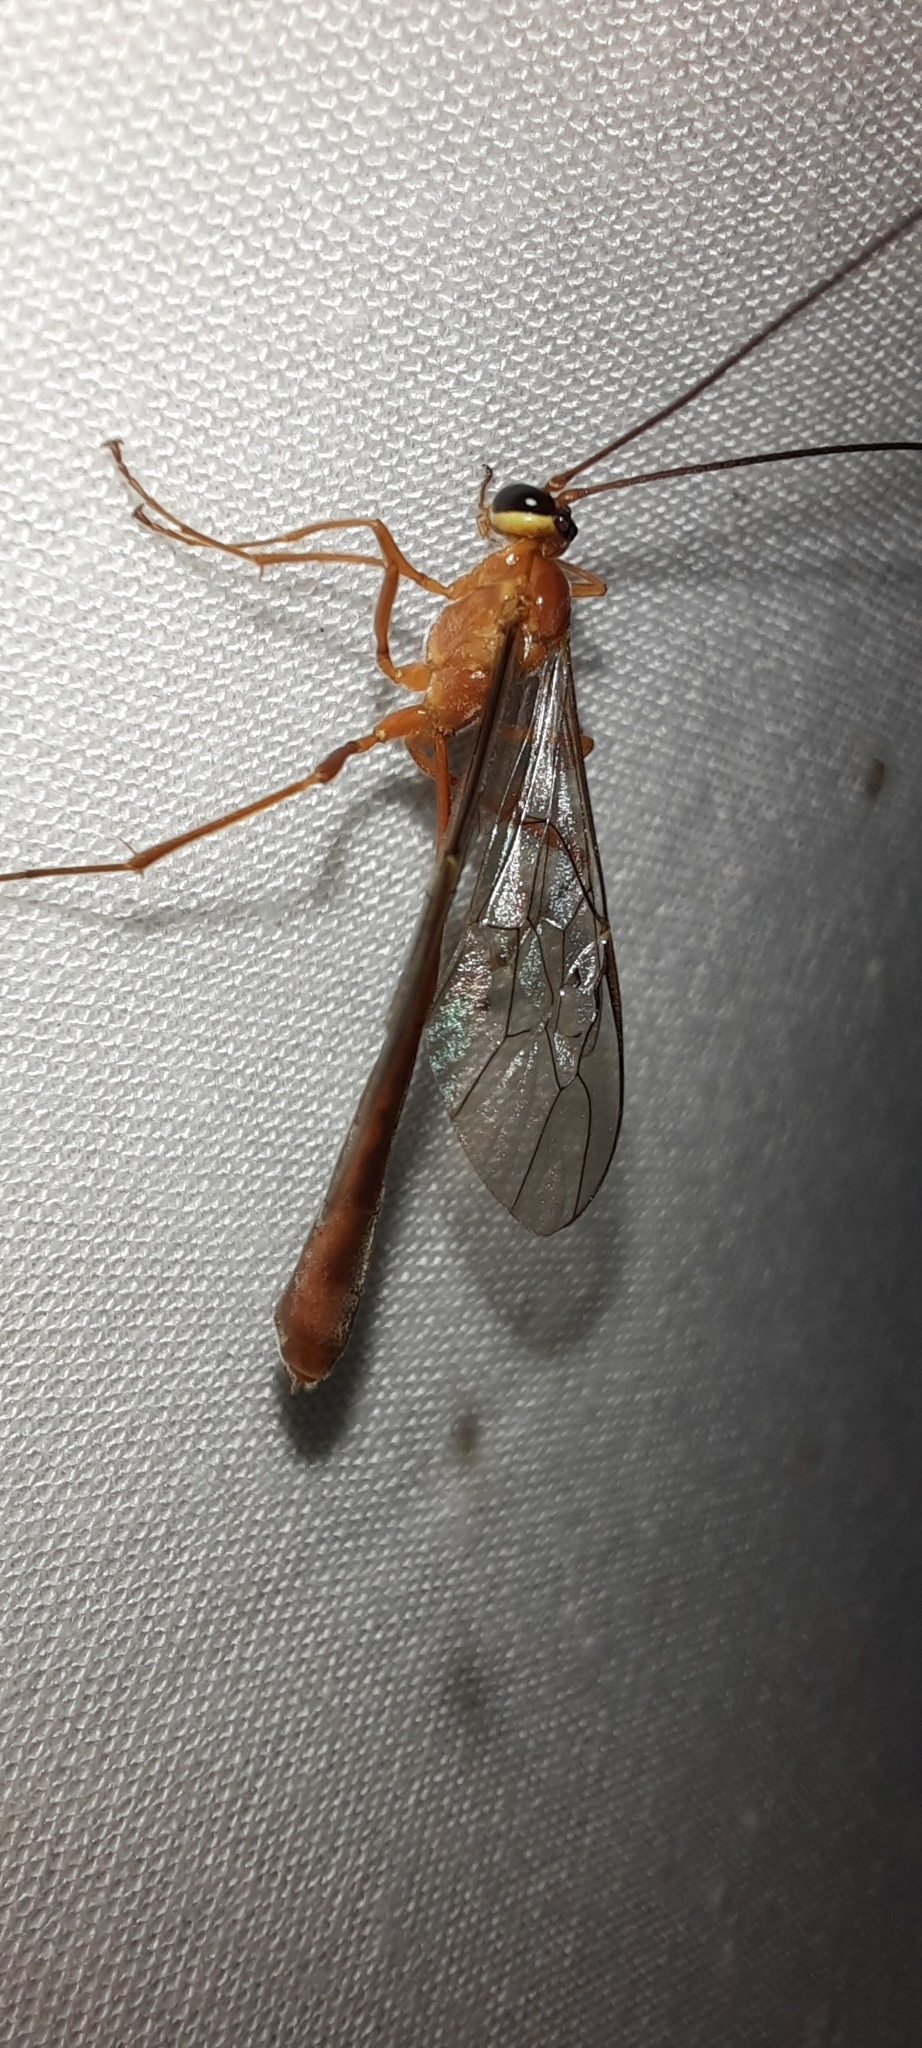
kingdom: Animalia
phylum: Arthropoda
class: Insecta
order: Hymenoptera
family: Ichneumonidae
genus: Dicamptus
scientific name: Dicamptus fuscicornis
